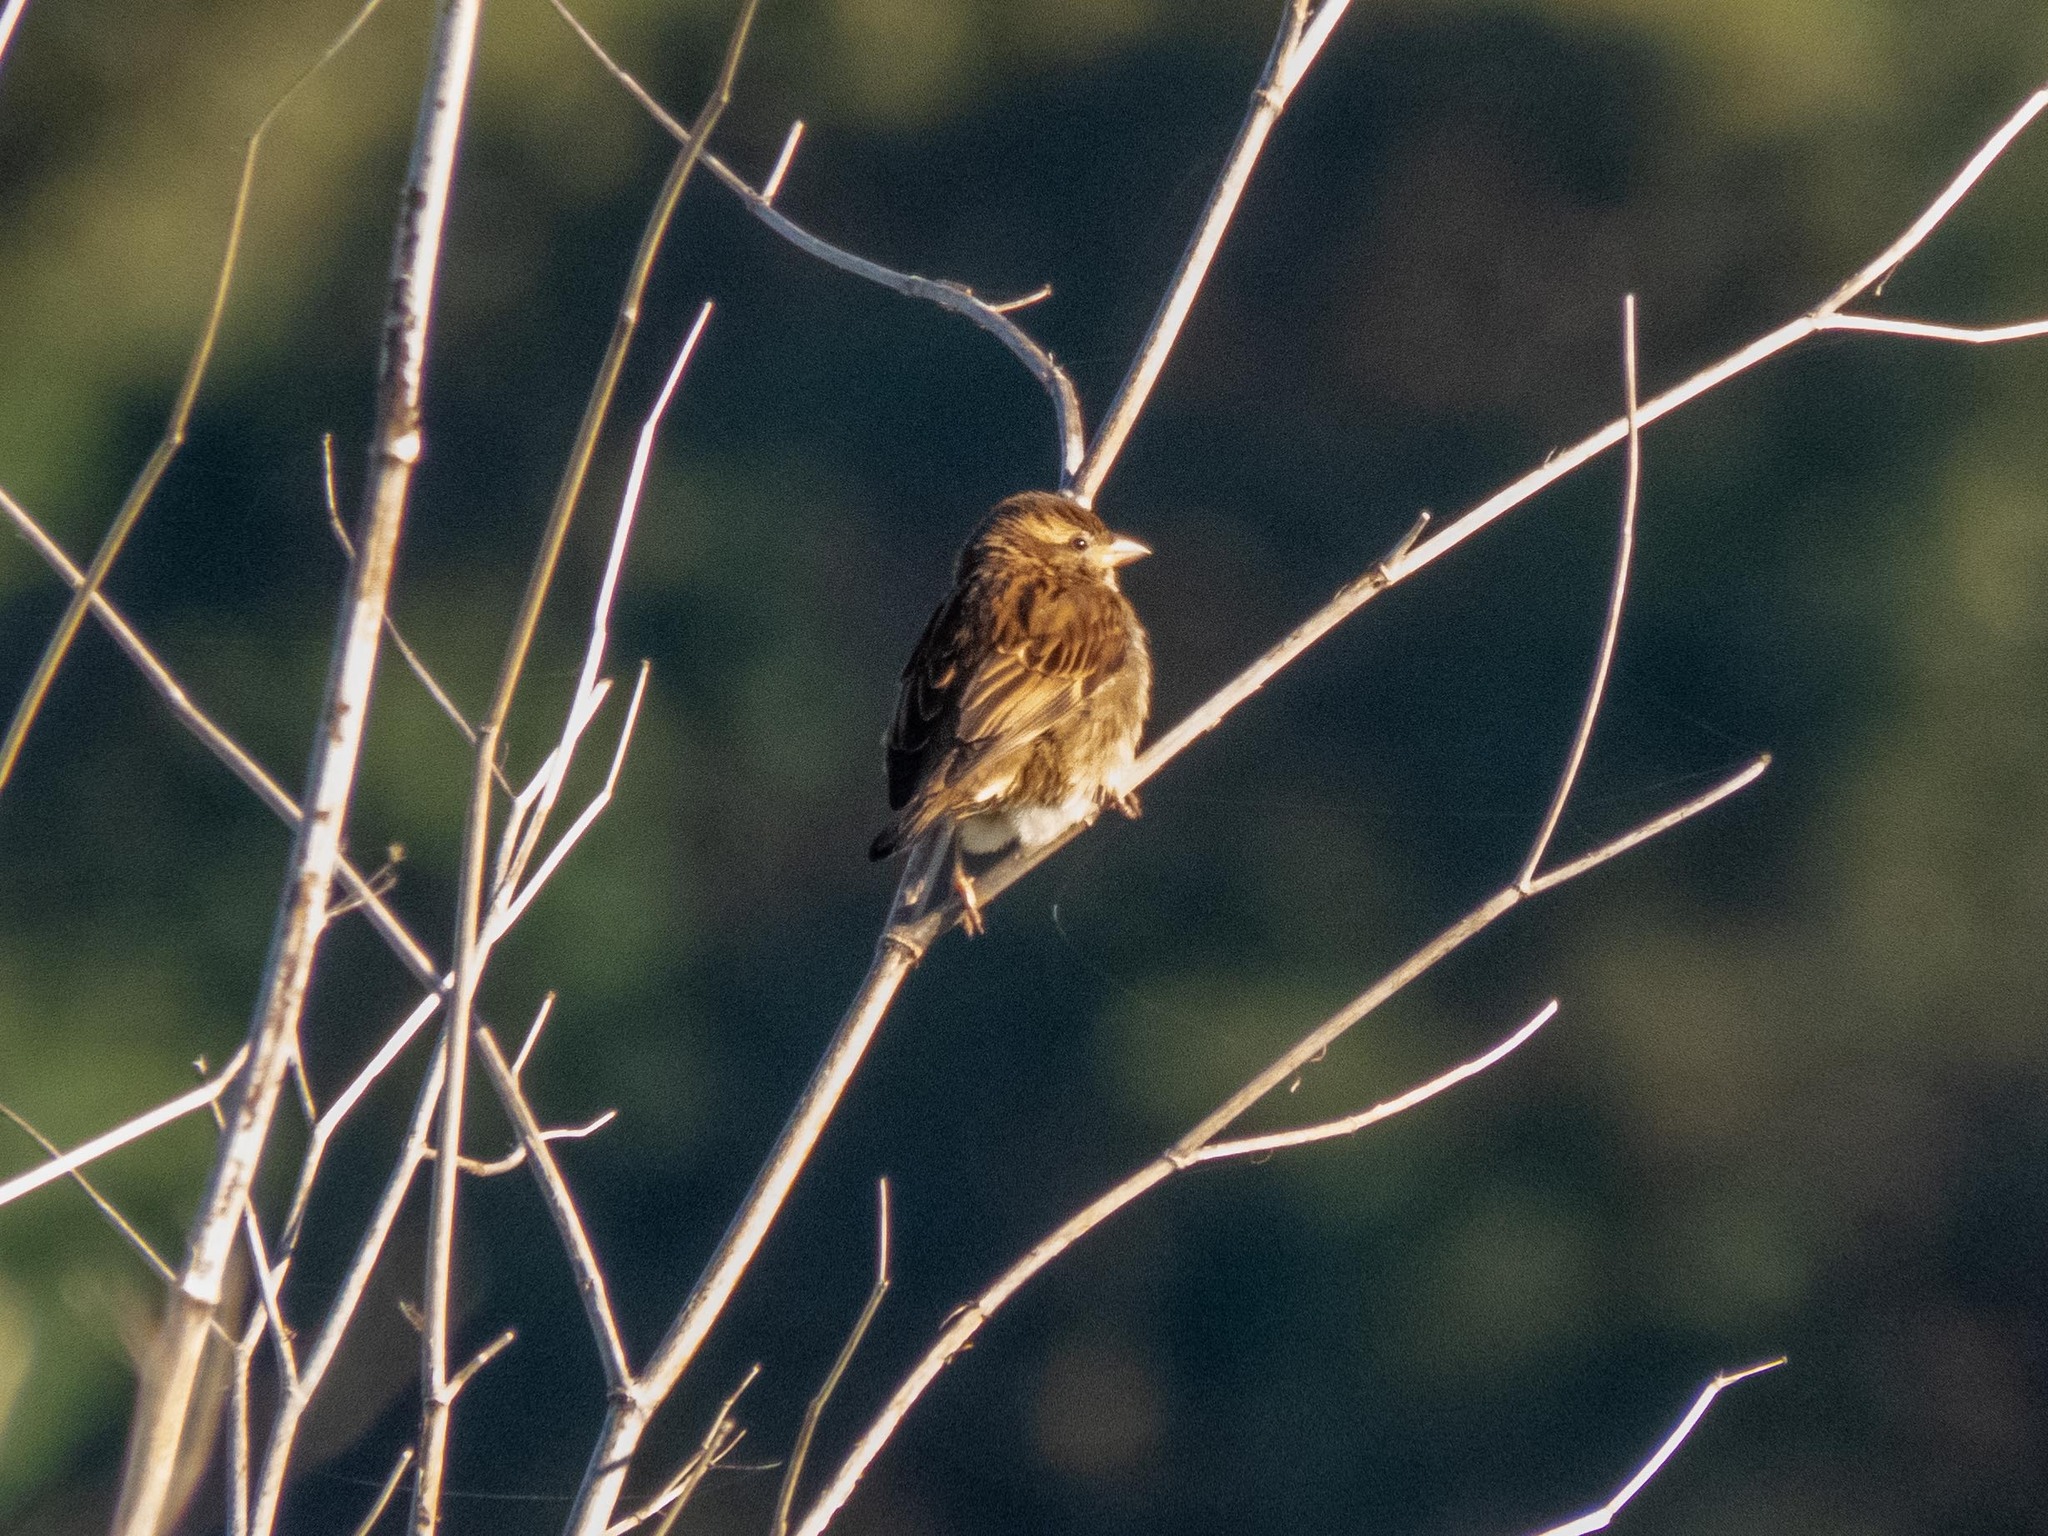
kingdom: Animalia
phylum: Chordata
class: Aves
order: Passeriformes
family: Passeridae
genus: Passer
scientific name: Passer domesticus
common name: House sparrow
